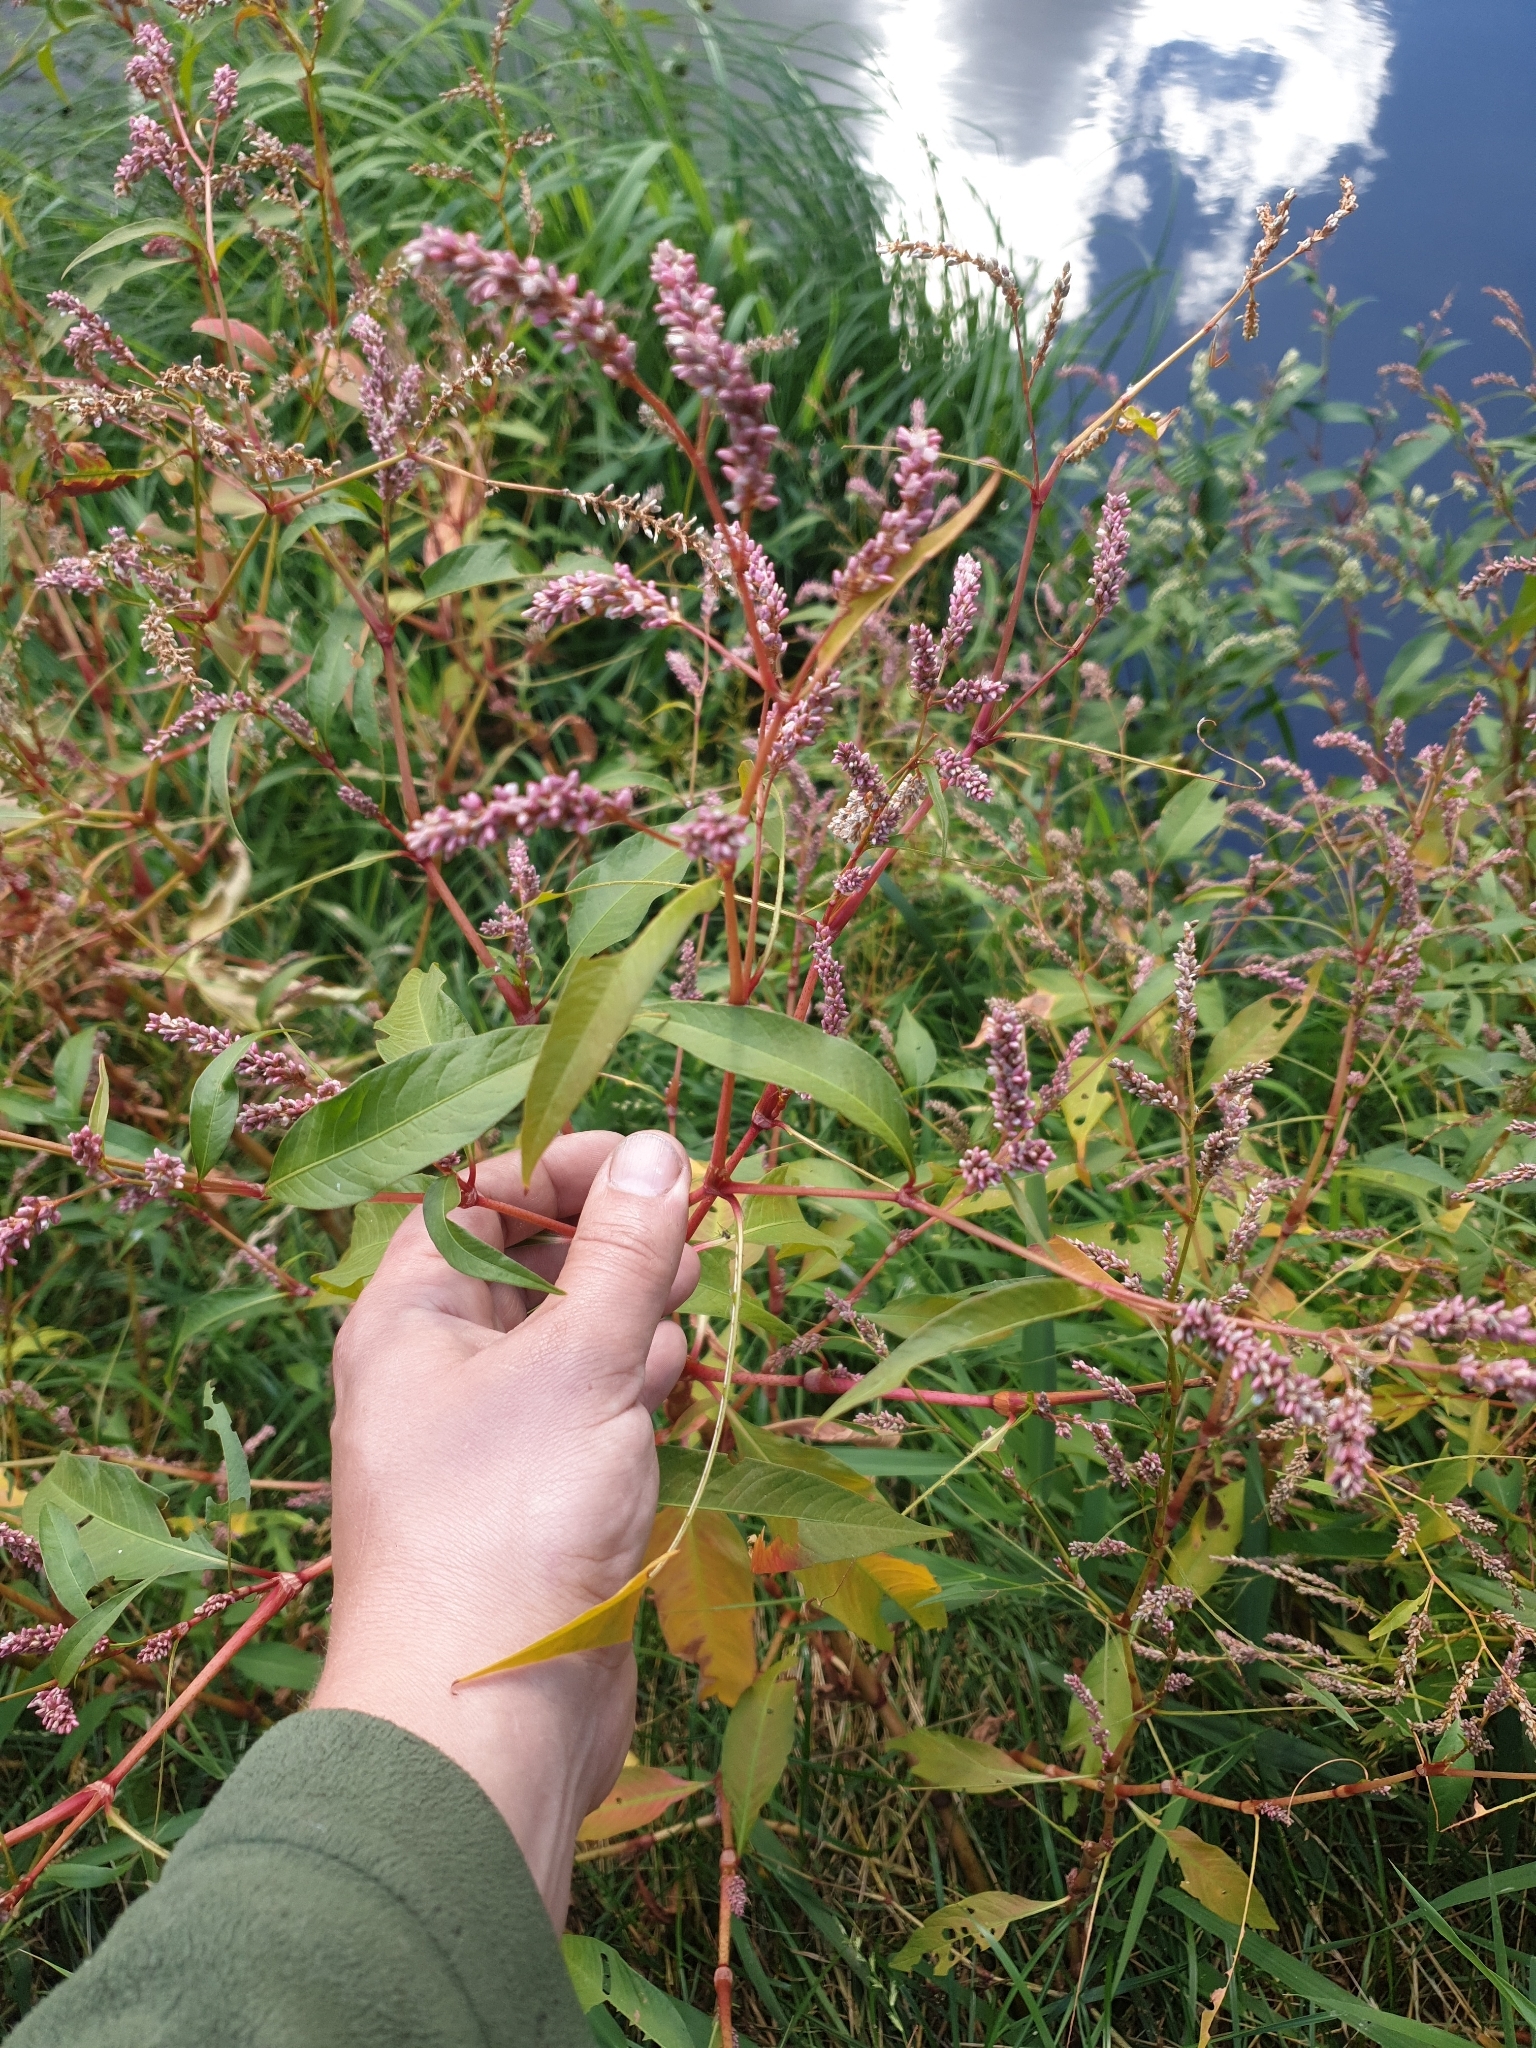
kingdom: Plantae
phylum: Tracheophyta
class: Magnoliopsida
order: Caryophyllales
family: Polygonaceae
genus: Persicaria
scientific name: Persicaria lapathifolia
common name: Curlytop knotweed
